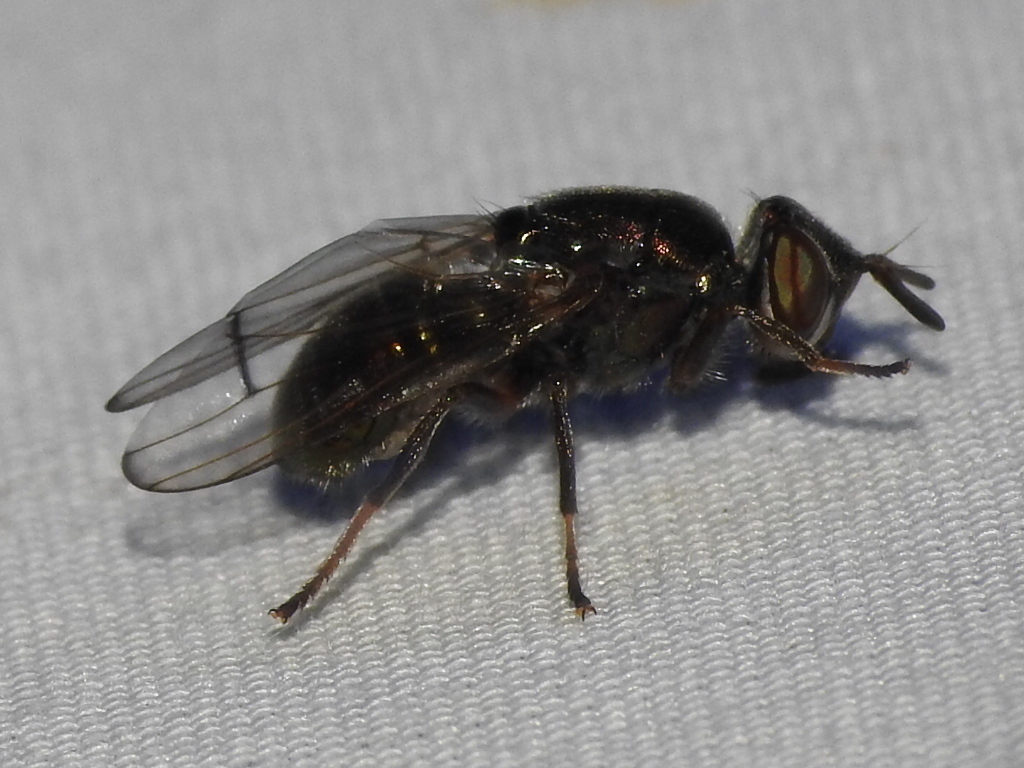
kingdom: Animalia
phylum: Arthropoda
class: Insecta
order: Diptera
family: Platystomatidae
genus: Senopterina
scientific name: Senopterina foxleei
